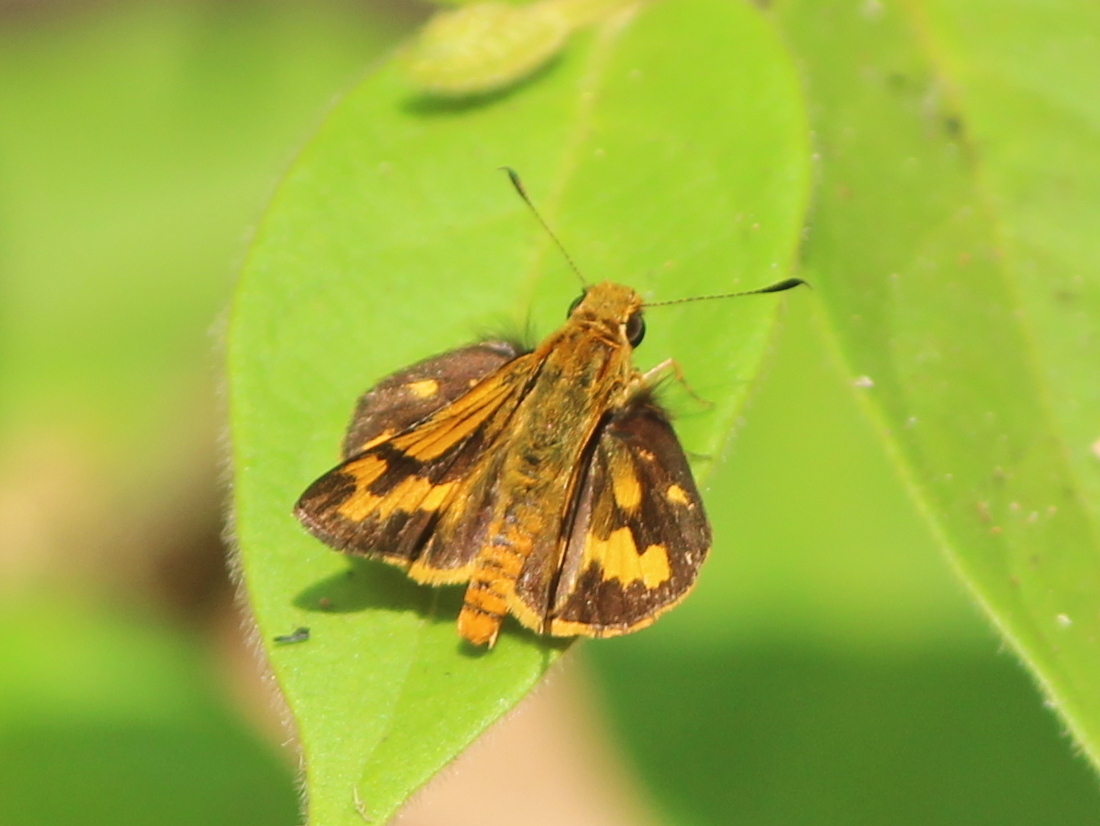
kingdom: Animalia
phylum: Arthropoda
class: Insecta
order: Lepidoptera
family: Hesperiidae
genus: Potanthus
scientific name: Potanthus confucius
